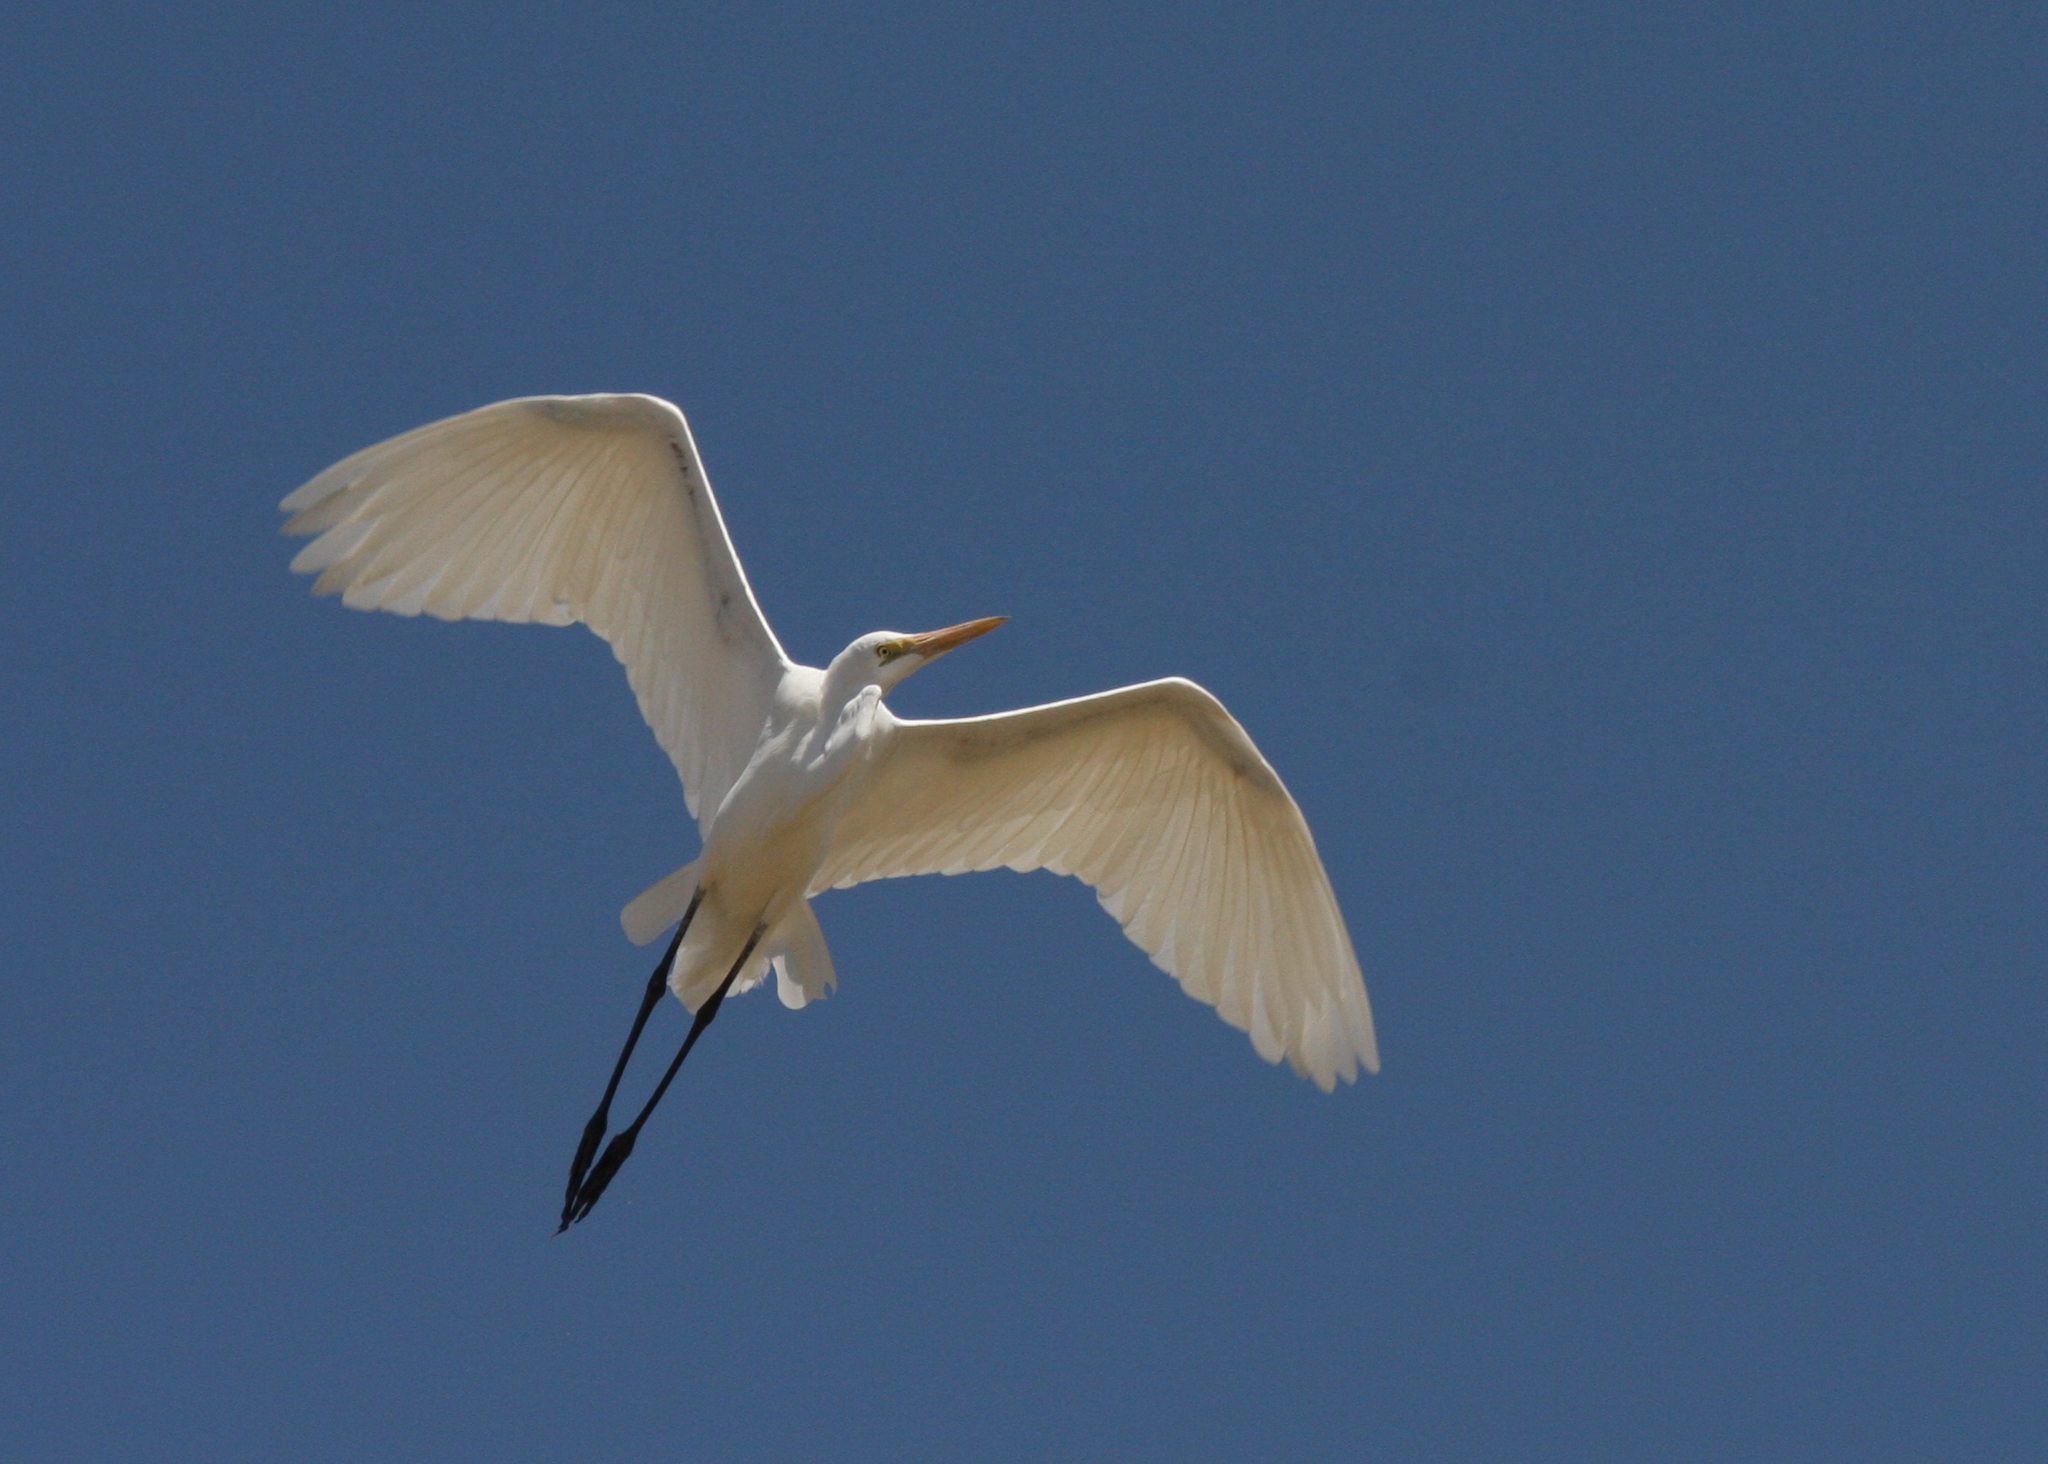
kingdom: Animalia
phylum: Chordata
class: Aves
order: Pelecaniformes
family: Ardeidae
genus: Ardea
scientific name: Ardea alba
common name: Great egret
